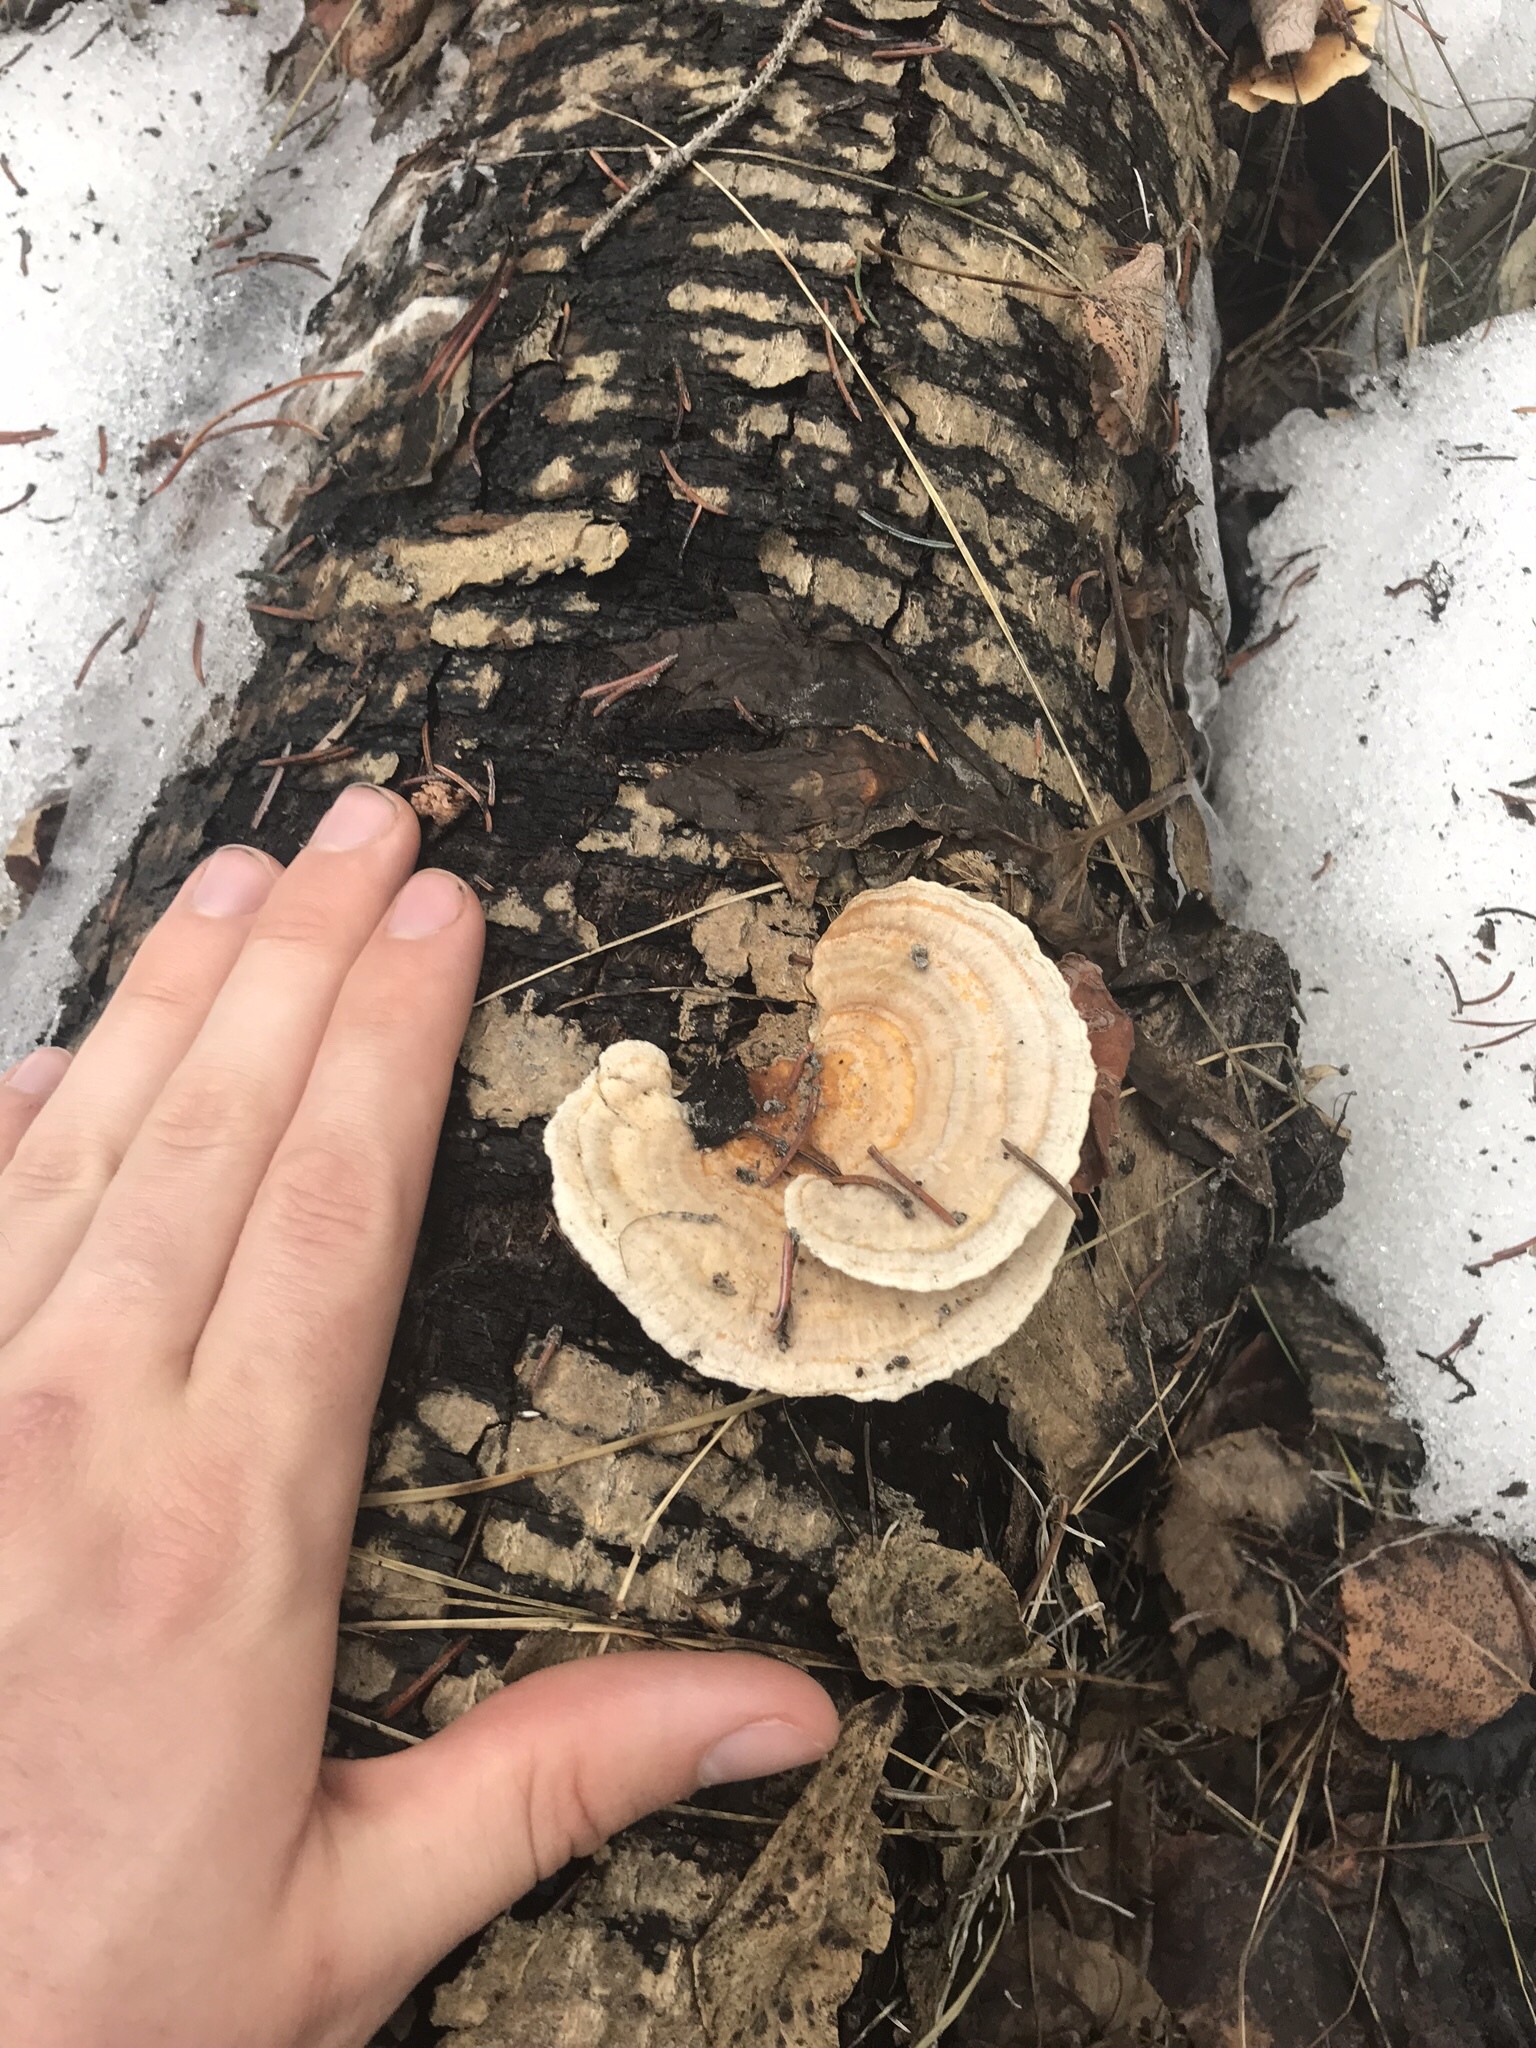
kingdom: Fungi
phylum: Basidiomycota
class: Agaricomycetes
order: Polyporales
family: Polyporaceae
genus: Trametes
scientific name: Trametes ochracea
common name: Ochre bracket
